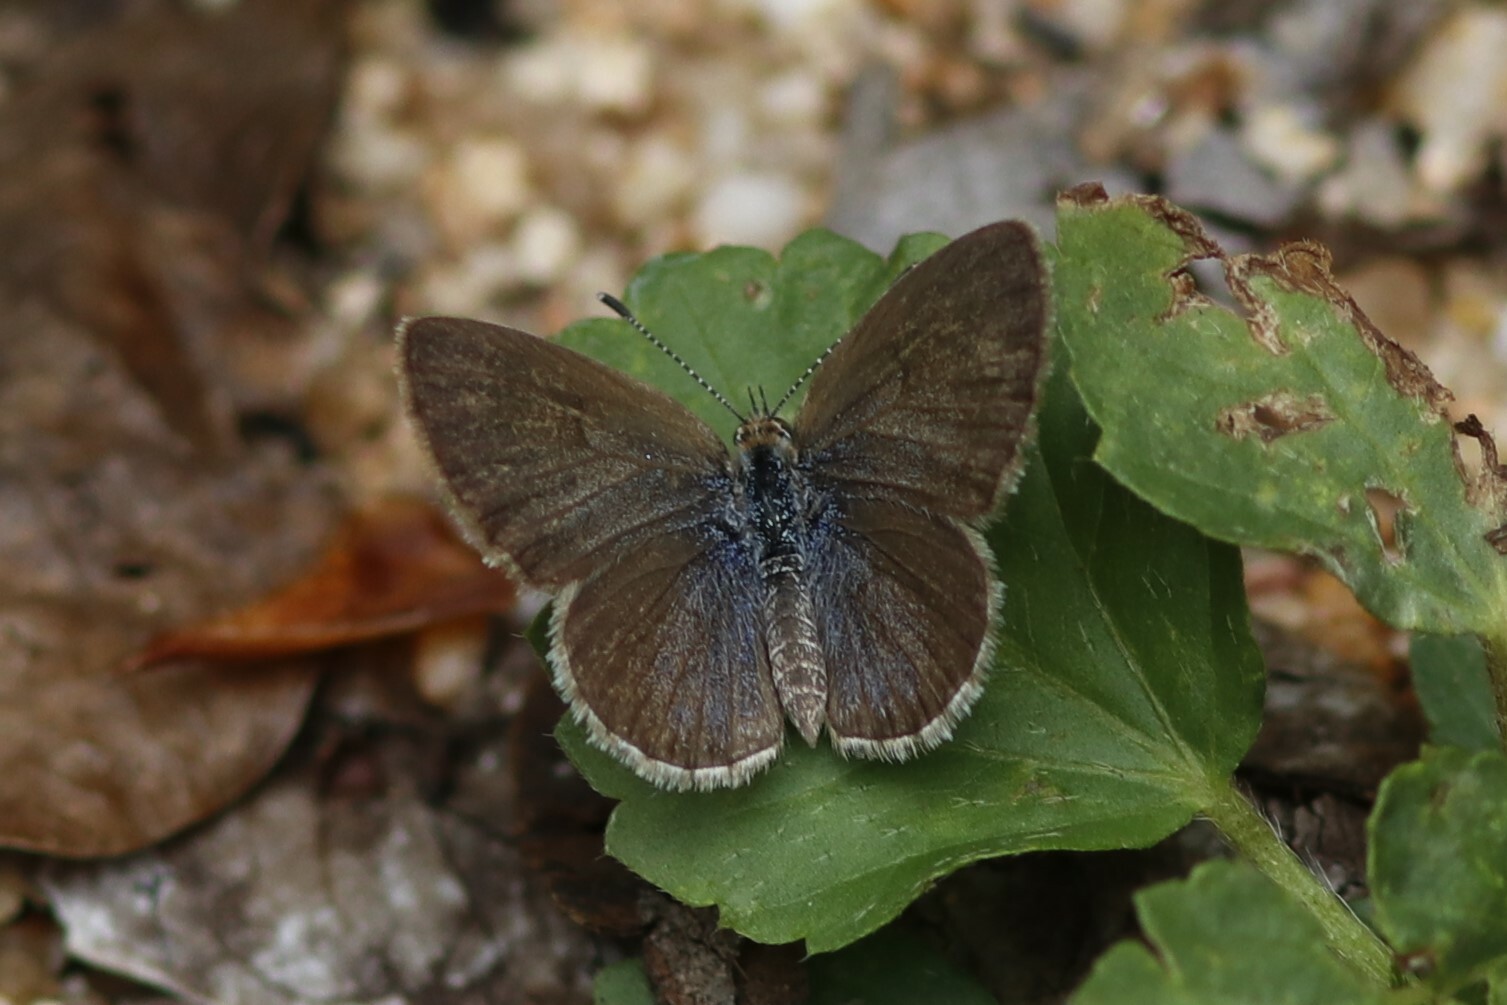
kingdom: Animalia
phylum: Arthropoda
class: Insecta
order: Lepidoptera
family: Lycaenidae
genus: Zizeeria
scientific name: Zizeeria knysna
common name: African grass blue
